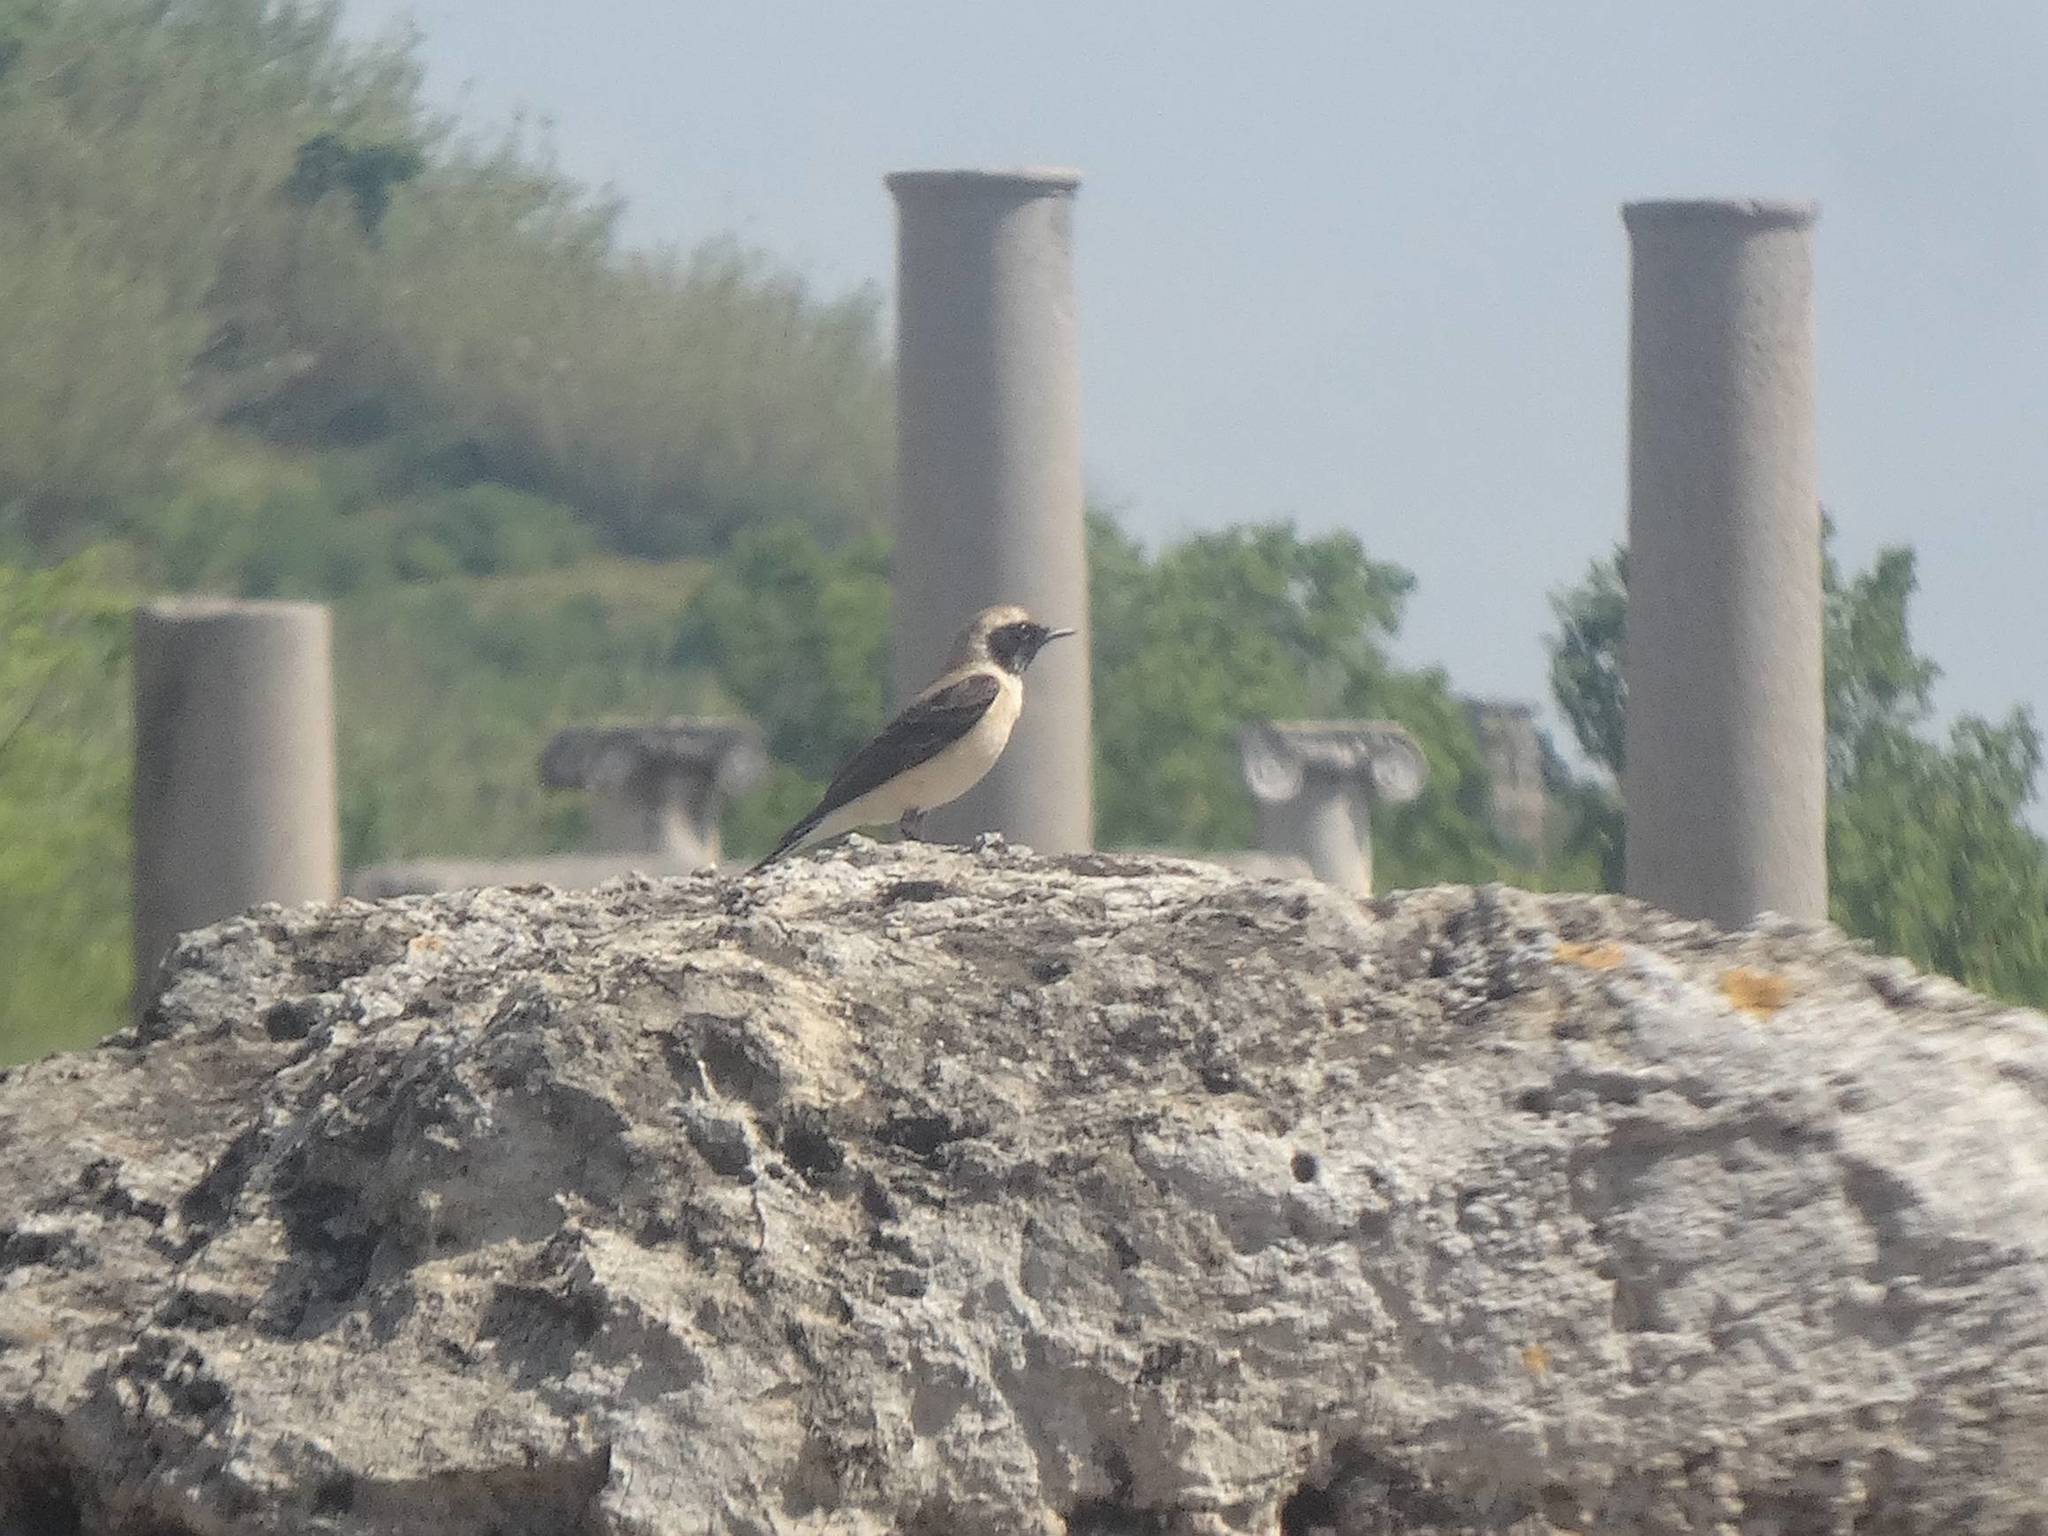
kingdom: Animalia
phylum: Chordata
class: Aves
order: Passeriformes
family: Muscicapidae
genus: Oenanthe
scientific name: Oenanthe hispanica
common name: Black-eared wheatear
